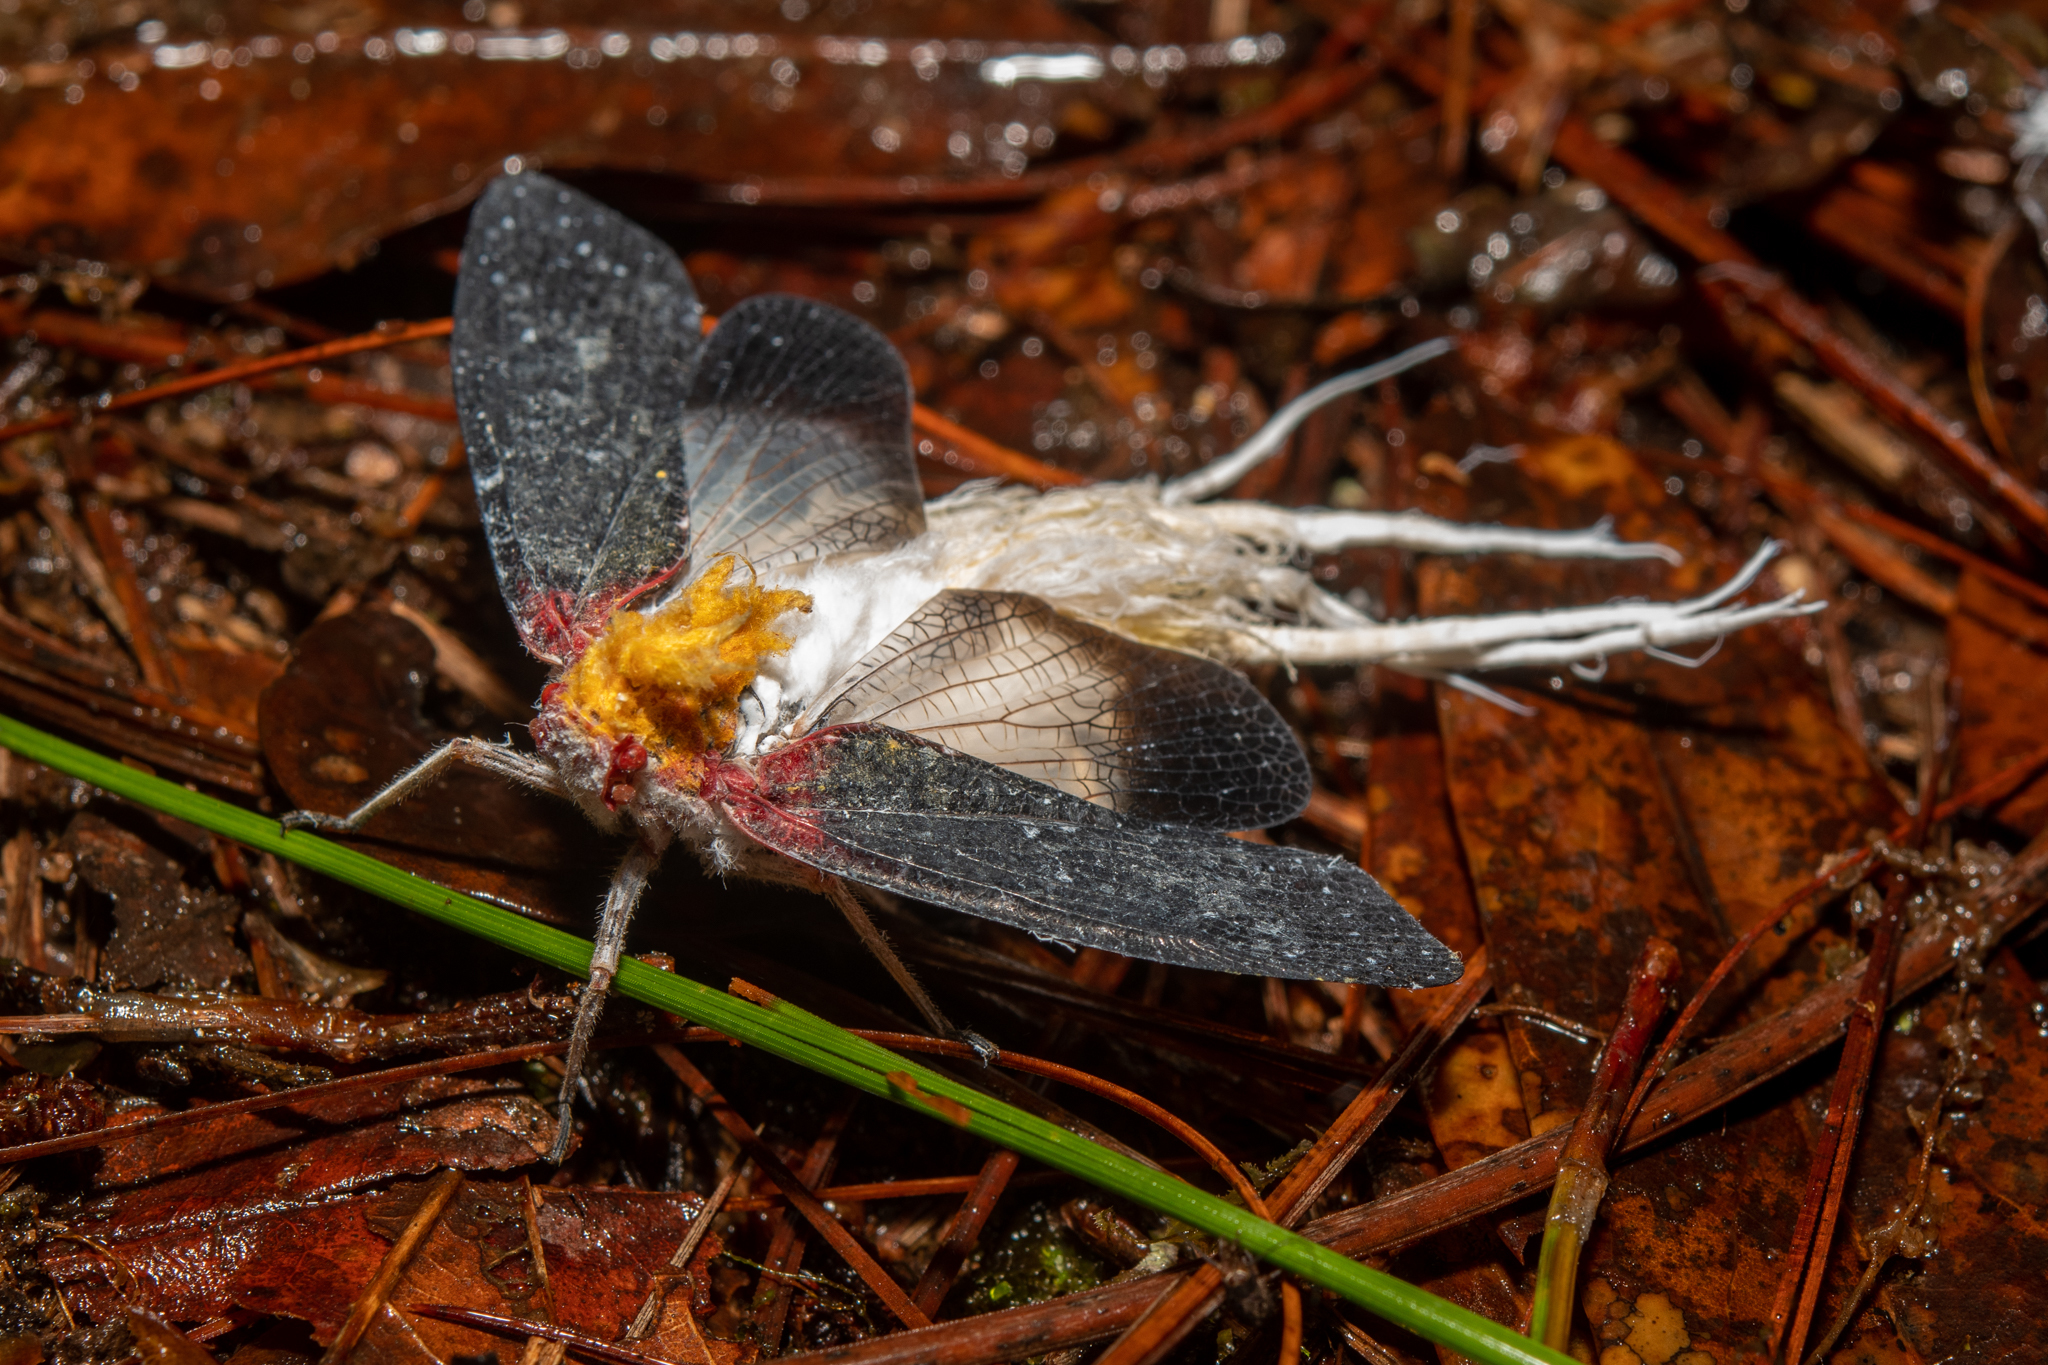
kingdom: Animalia
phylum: Arthropoda
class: Insecta
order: Hemiptera
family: Fulgoridae
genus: Cerogenes
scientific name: Cerogenes auricoma
